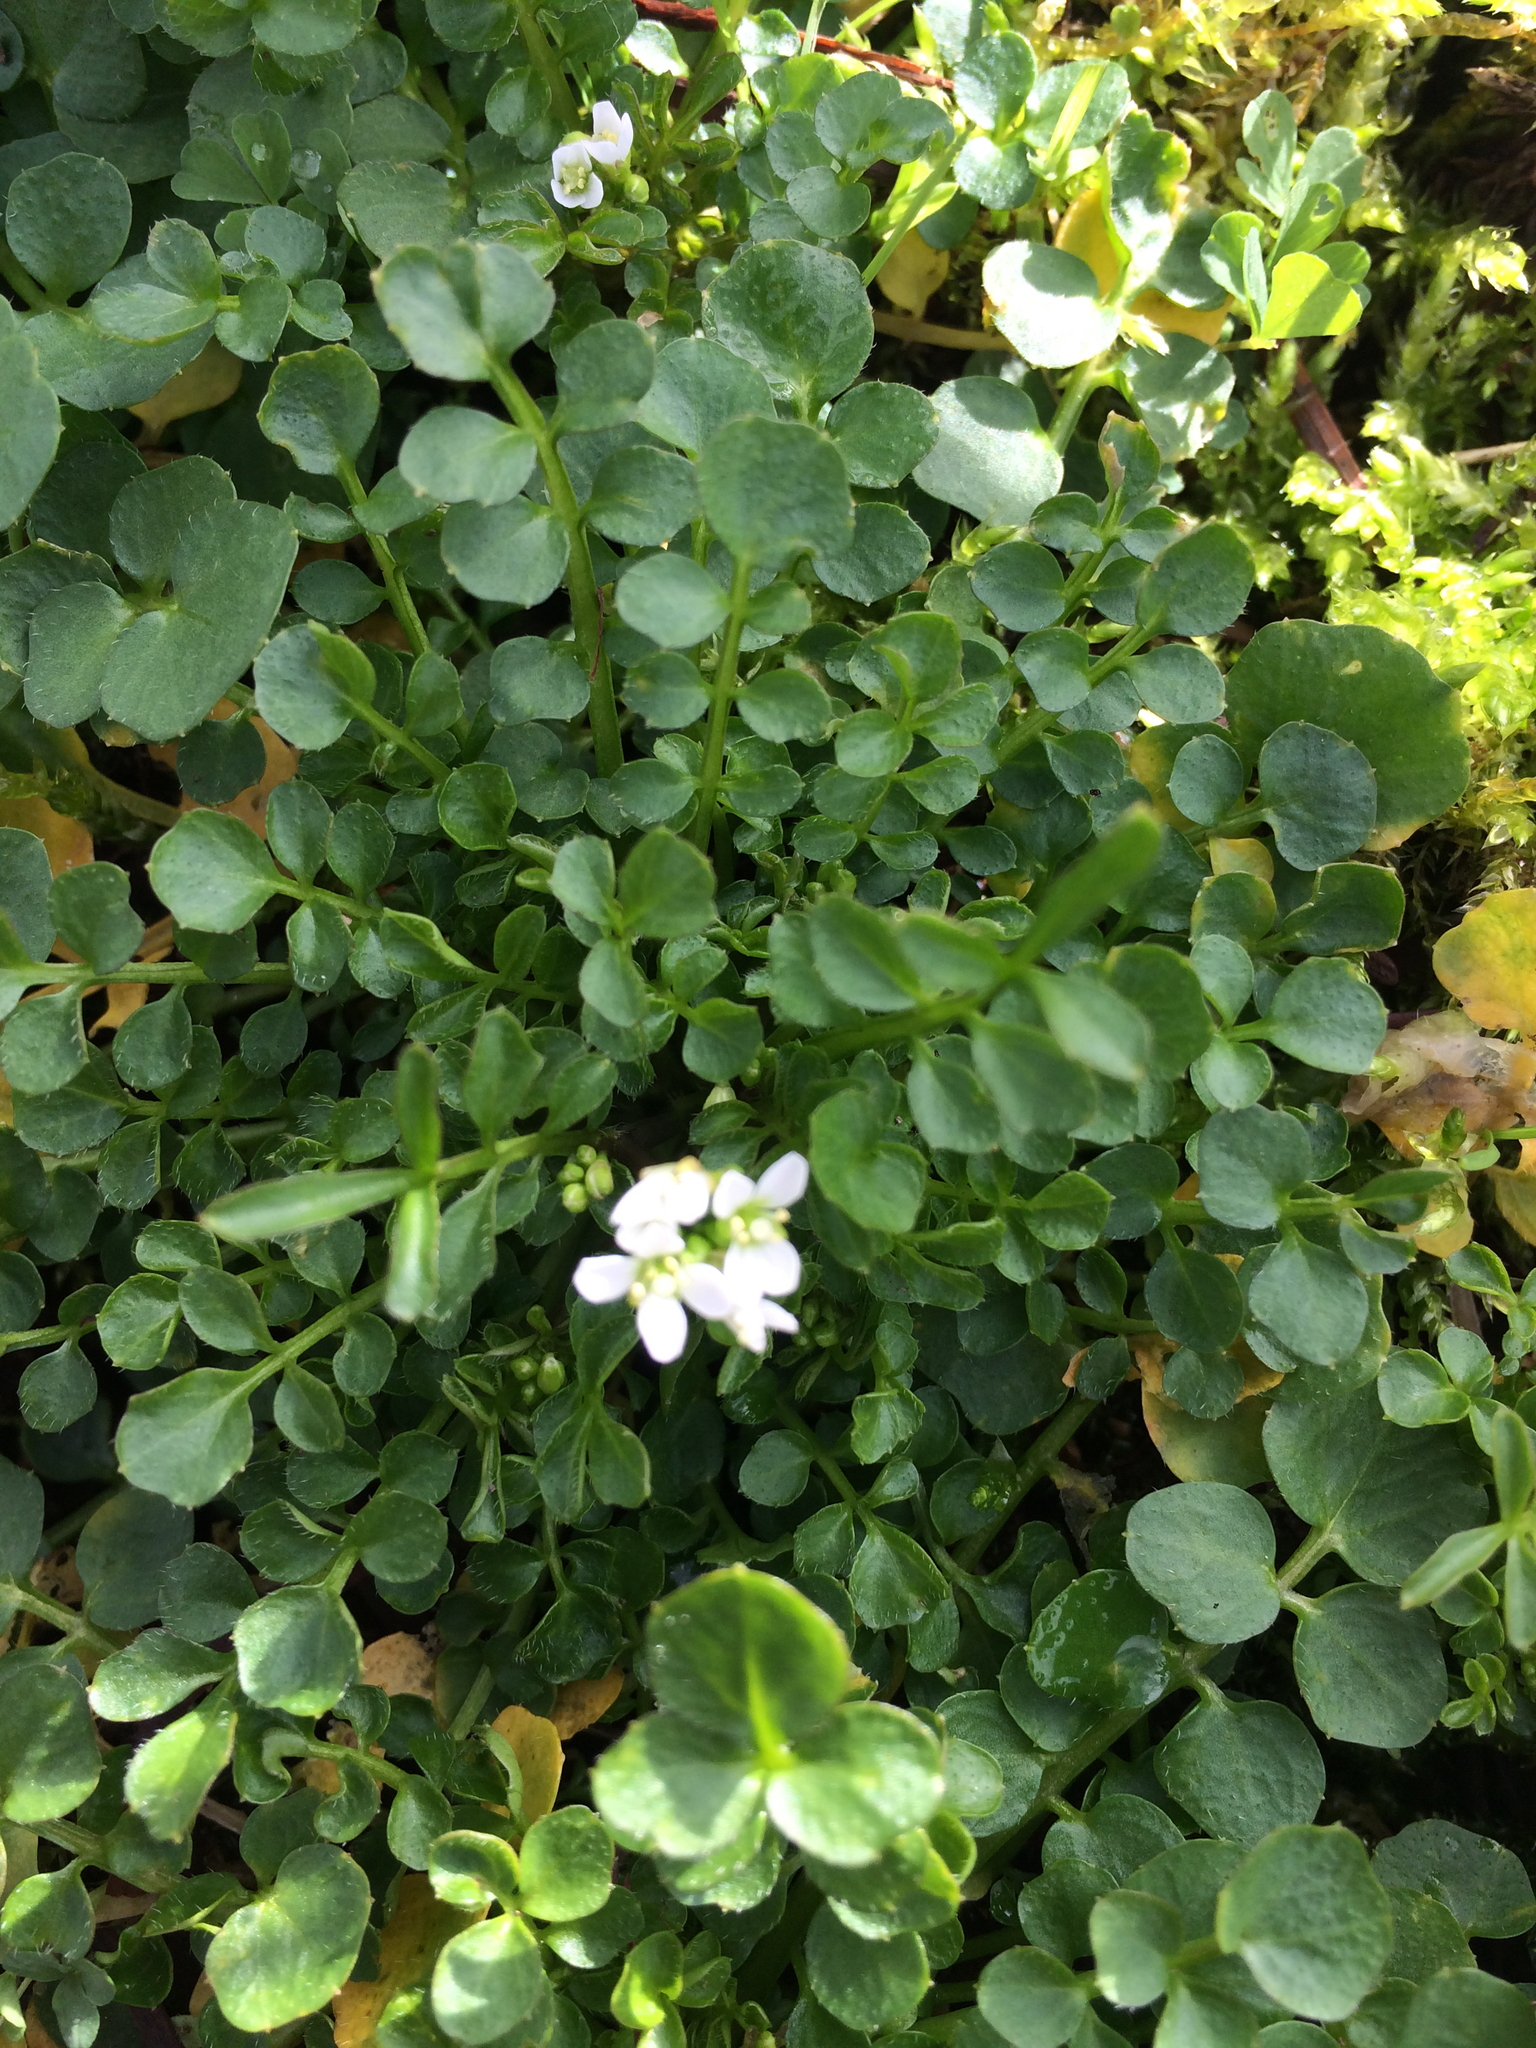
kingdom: Plantae
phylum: Tracheophyta
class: Magnoliopsida
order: Brassicales
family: Brassicaceae
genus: Cardamine
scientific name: Cardamine hirsuta
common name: Hairy bittercress
